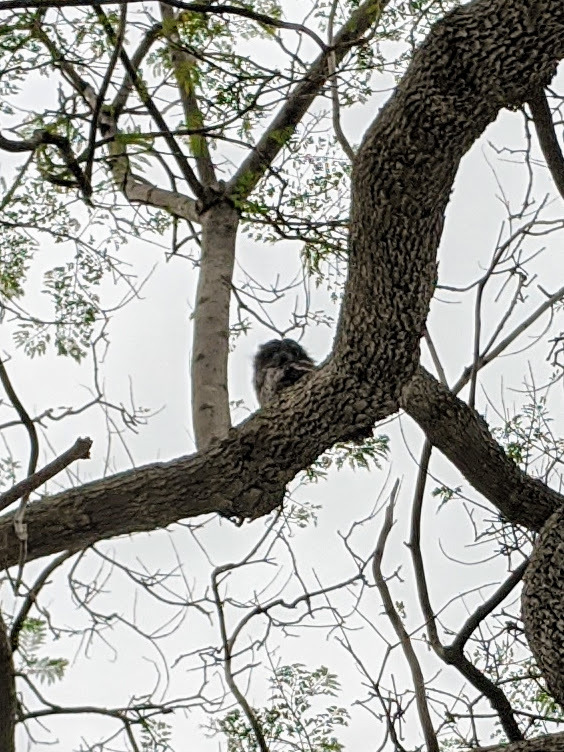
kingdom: Animalia
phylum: Chordata
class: Aves
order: Caprimulgiformes
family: Podargidae
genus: Podargus
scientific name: Podargus strigoides
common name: Tawny frogmouth
